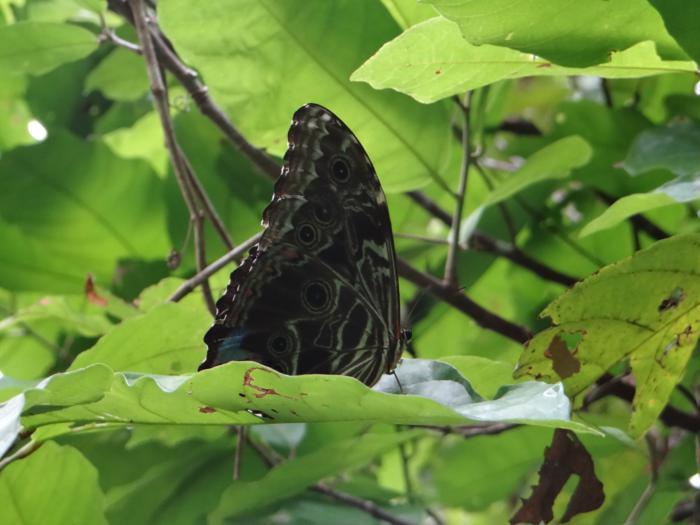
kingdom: Animalia
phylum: Arthropoda
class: Insecta
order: Lepidoptera
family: Nymphalidae
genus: Morpho
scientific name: Morpho deidamia
